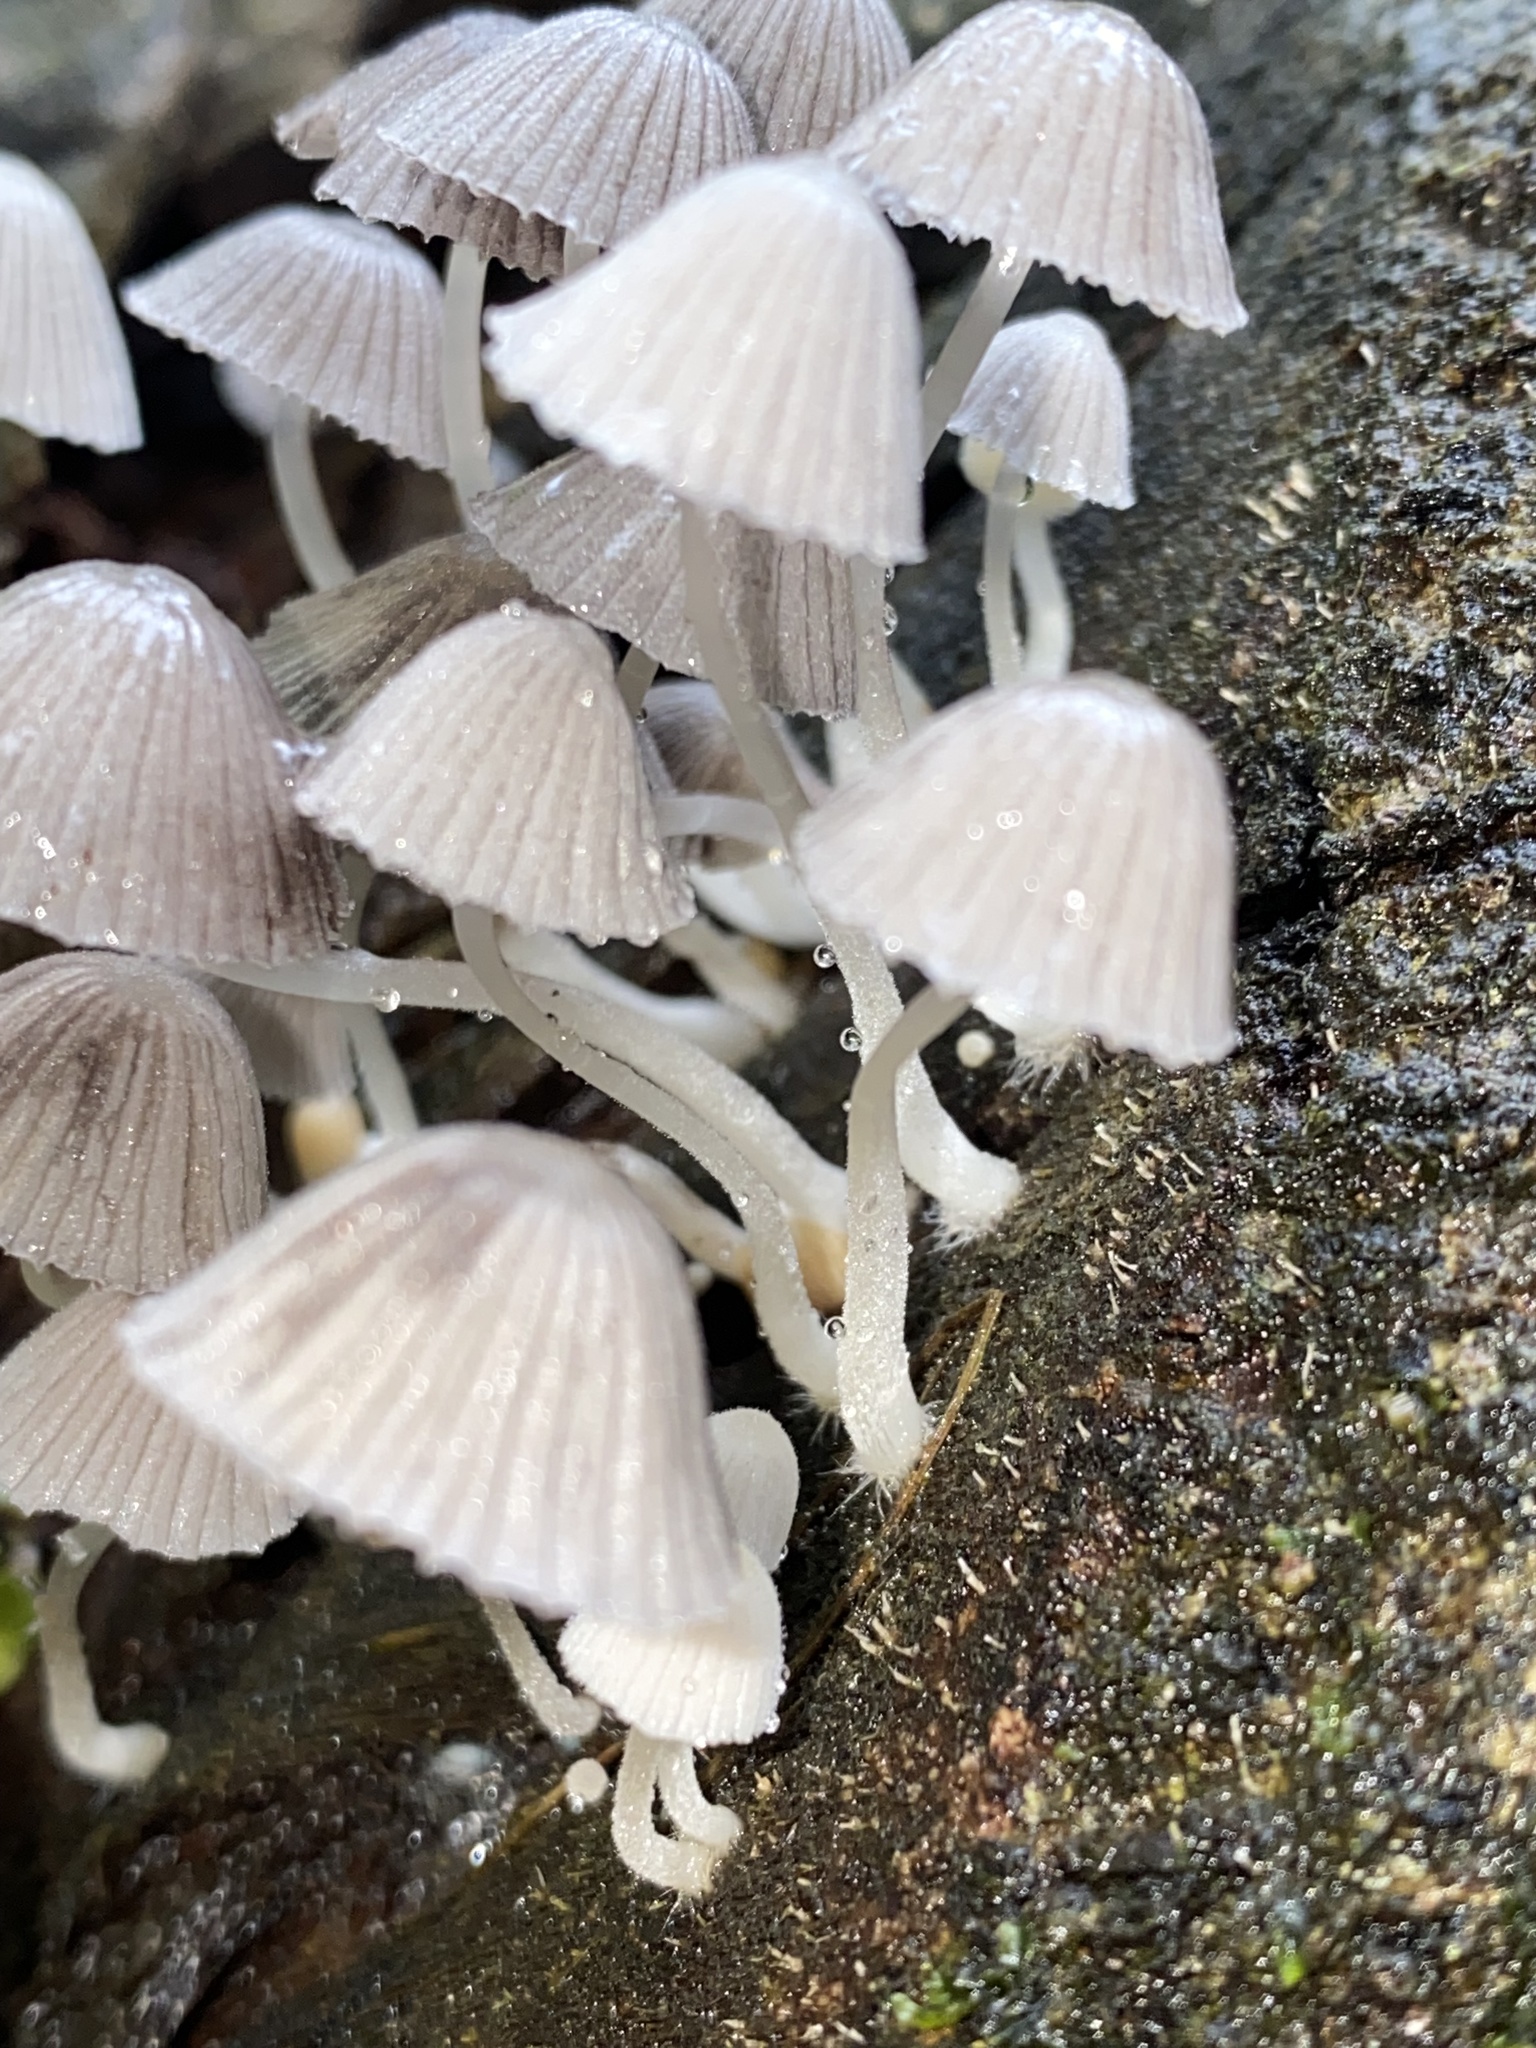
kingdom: Fungi
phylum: Basidiomycota
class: Agaricomycetes
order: Agaricales
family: Psathyrellaceae
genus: Coprinellus
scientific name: Coprinellus disseminatus
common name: Fairies' bonnets
